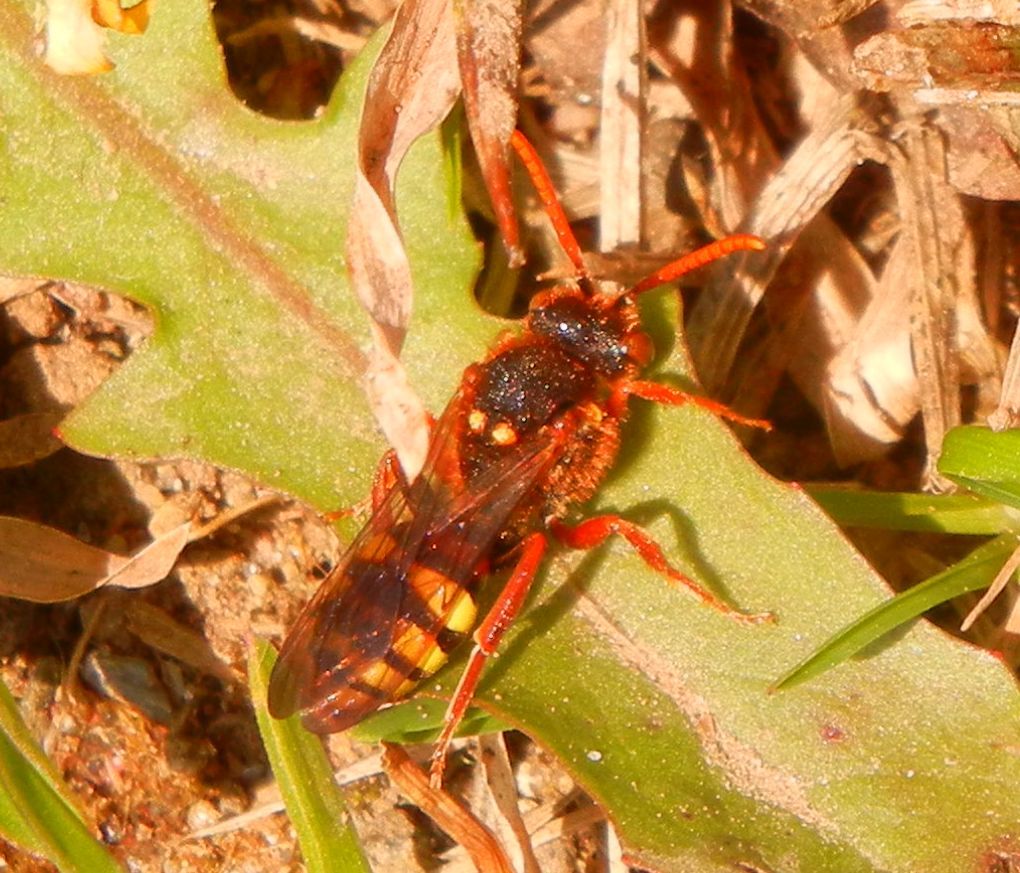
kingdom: Animalia
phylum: Arthropoda
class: Insecta
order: Hymenoptera
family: Apidae
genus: Nomada
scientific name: Nomada lathburiana
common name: Lathbury's nomad bee
